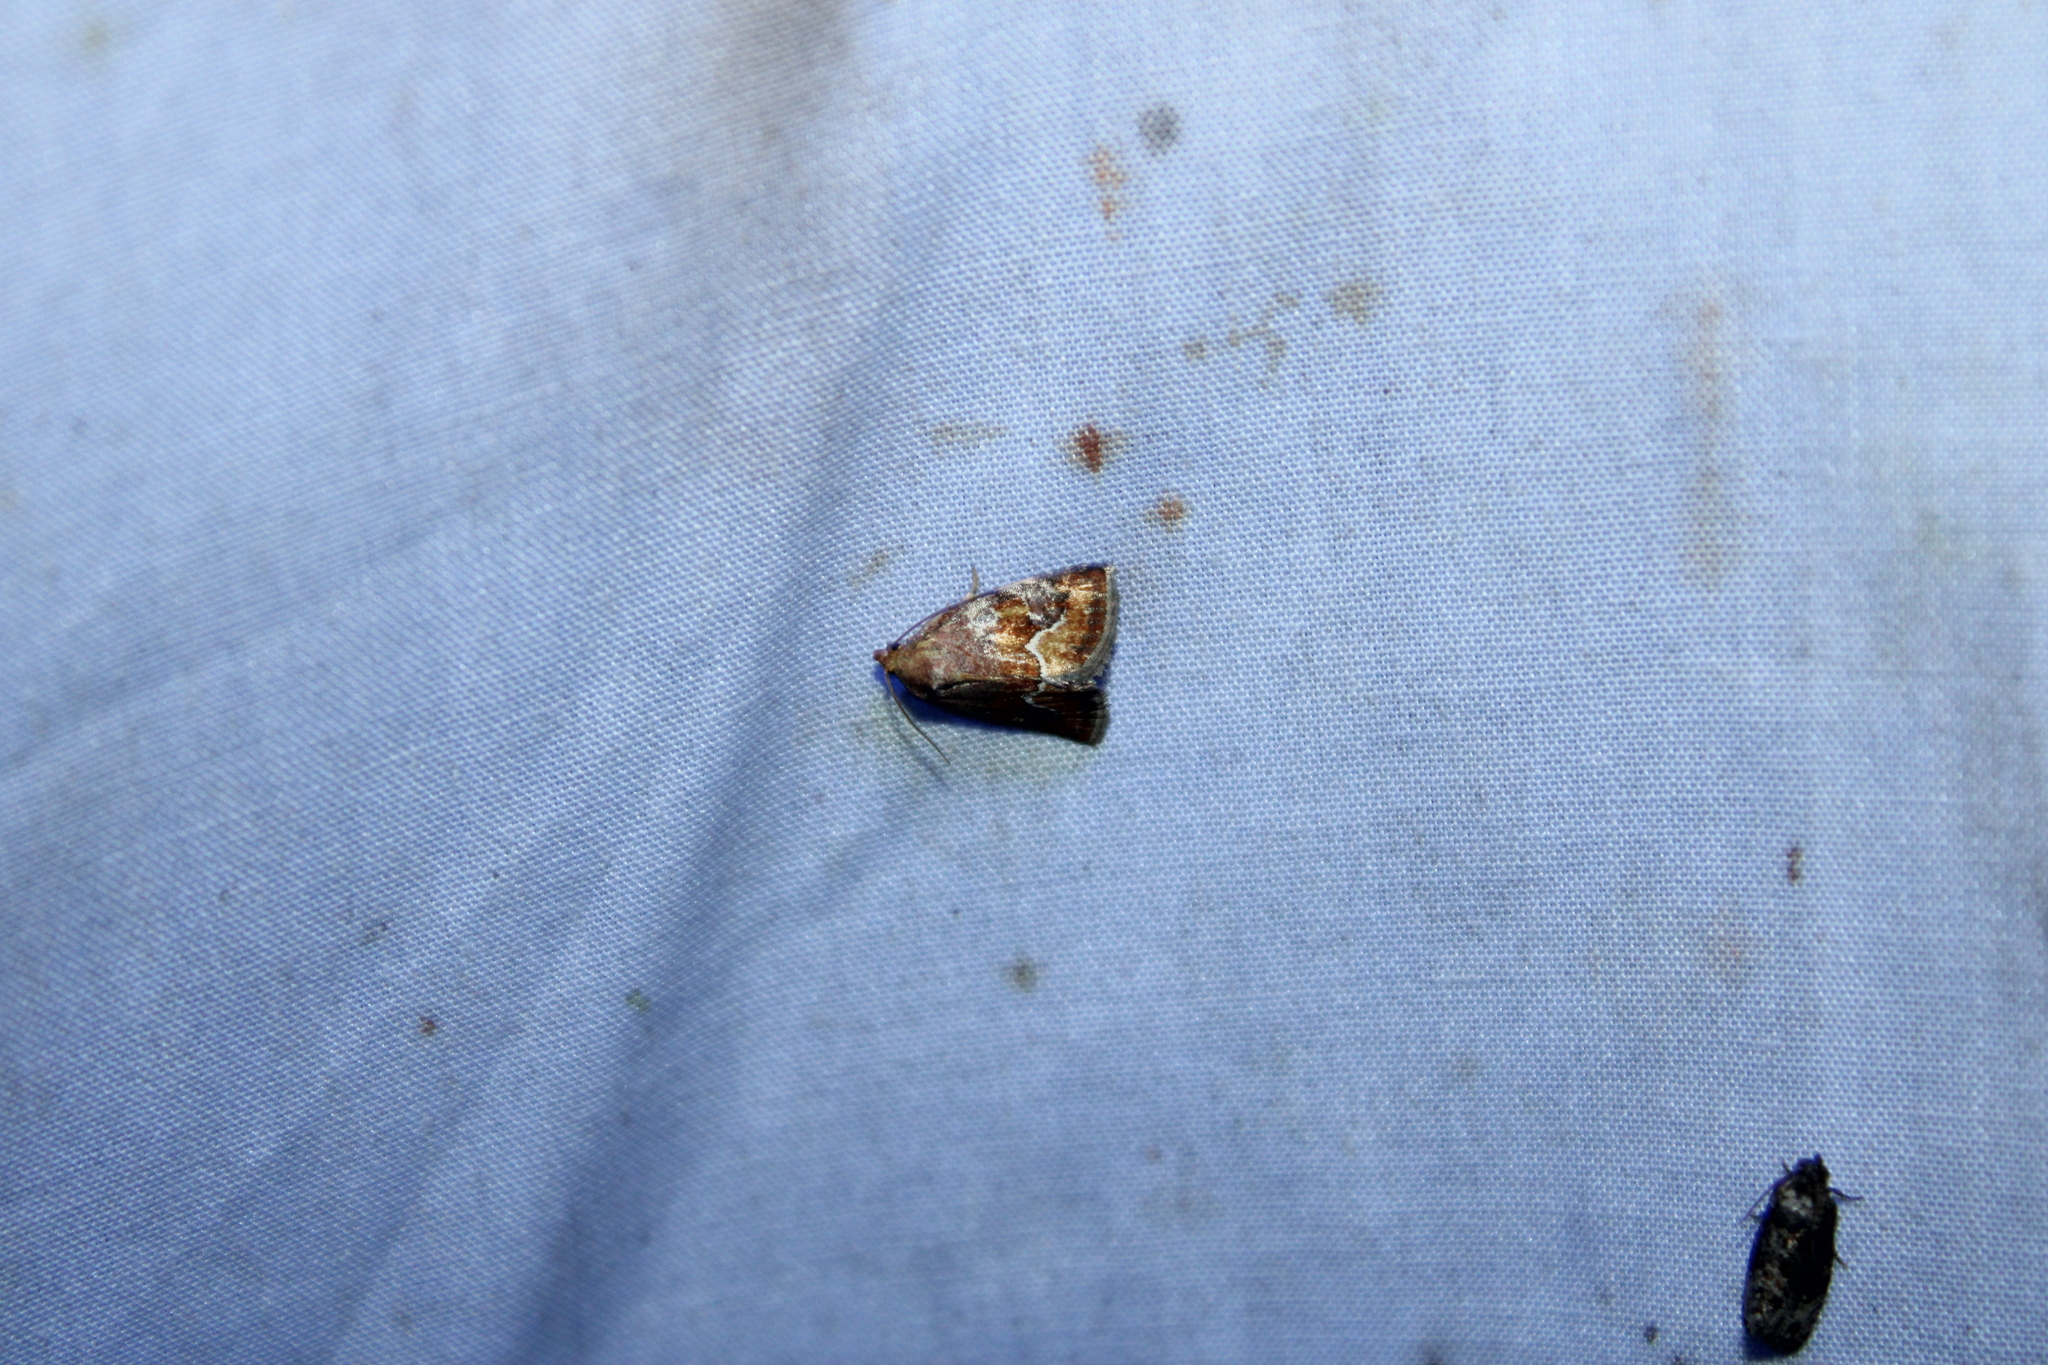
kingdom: Animalia
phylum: Arthropoda
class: Insecta
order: Lepidoptera
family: Noctuidae
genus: Deltote
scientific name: Deltote bellicula
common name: Bog glyph
